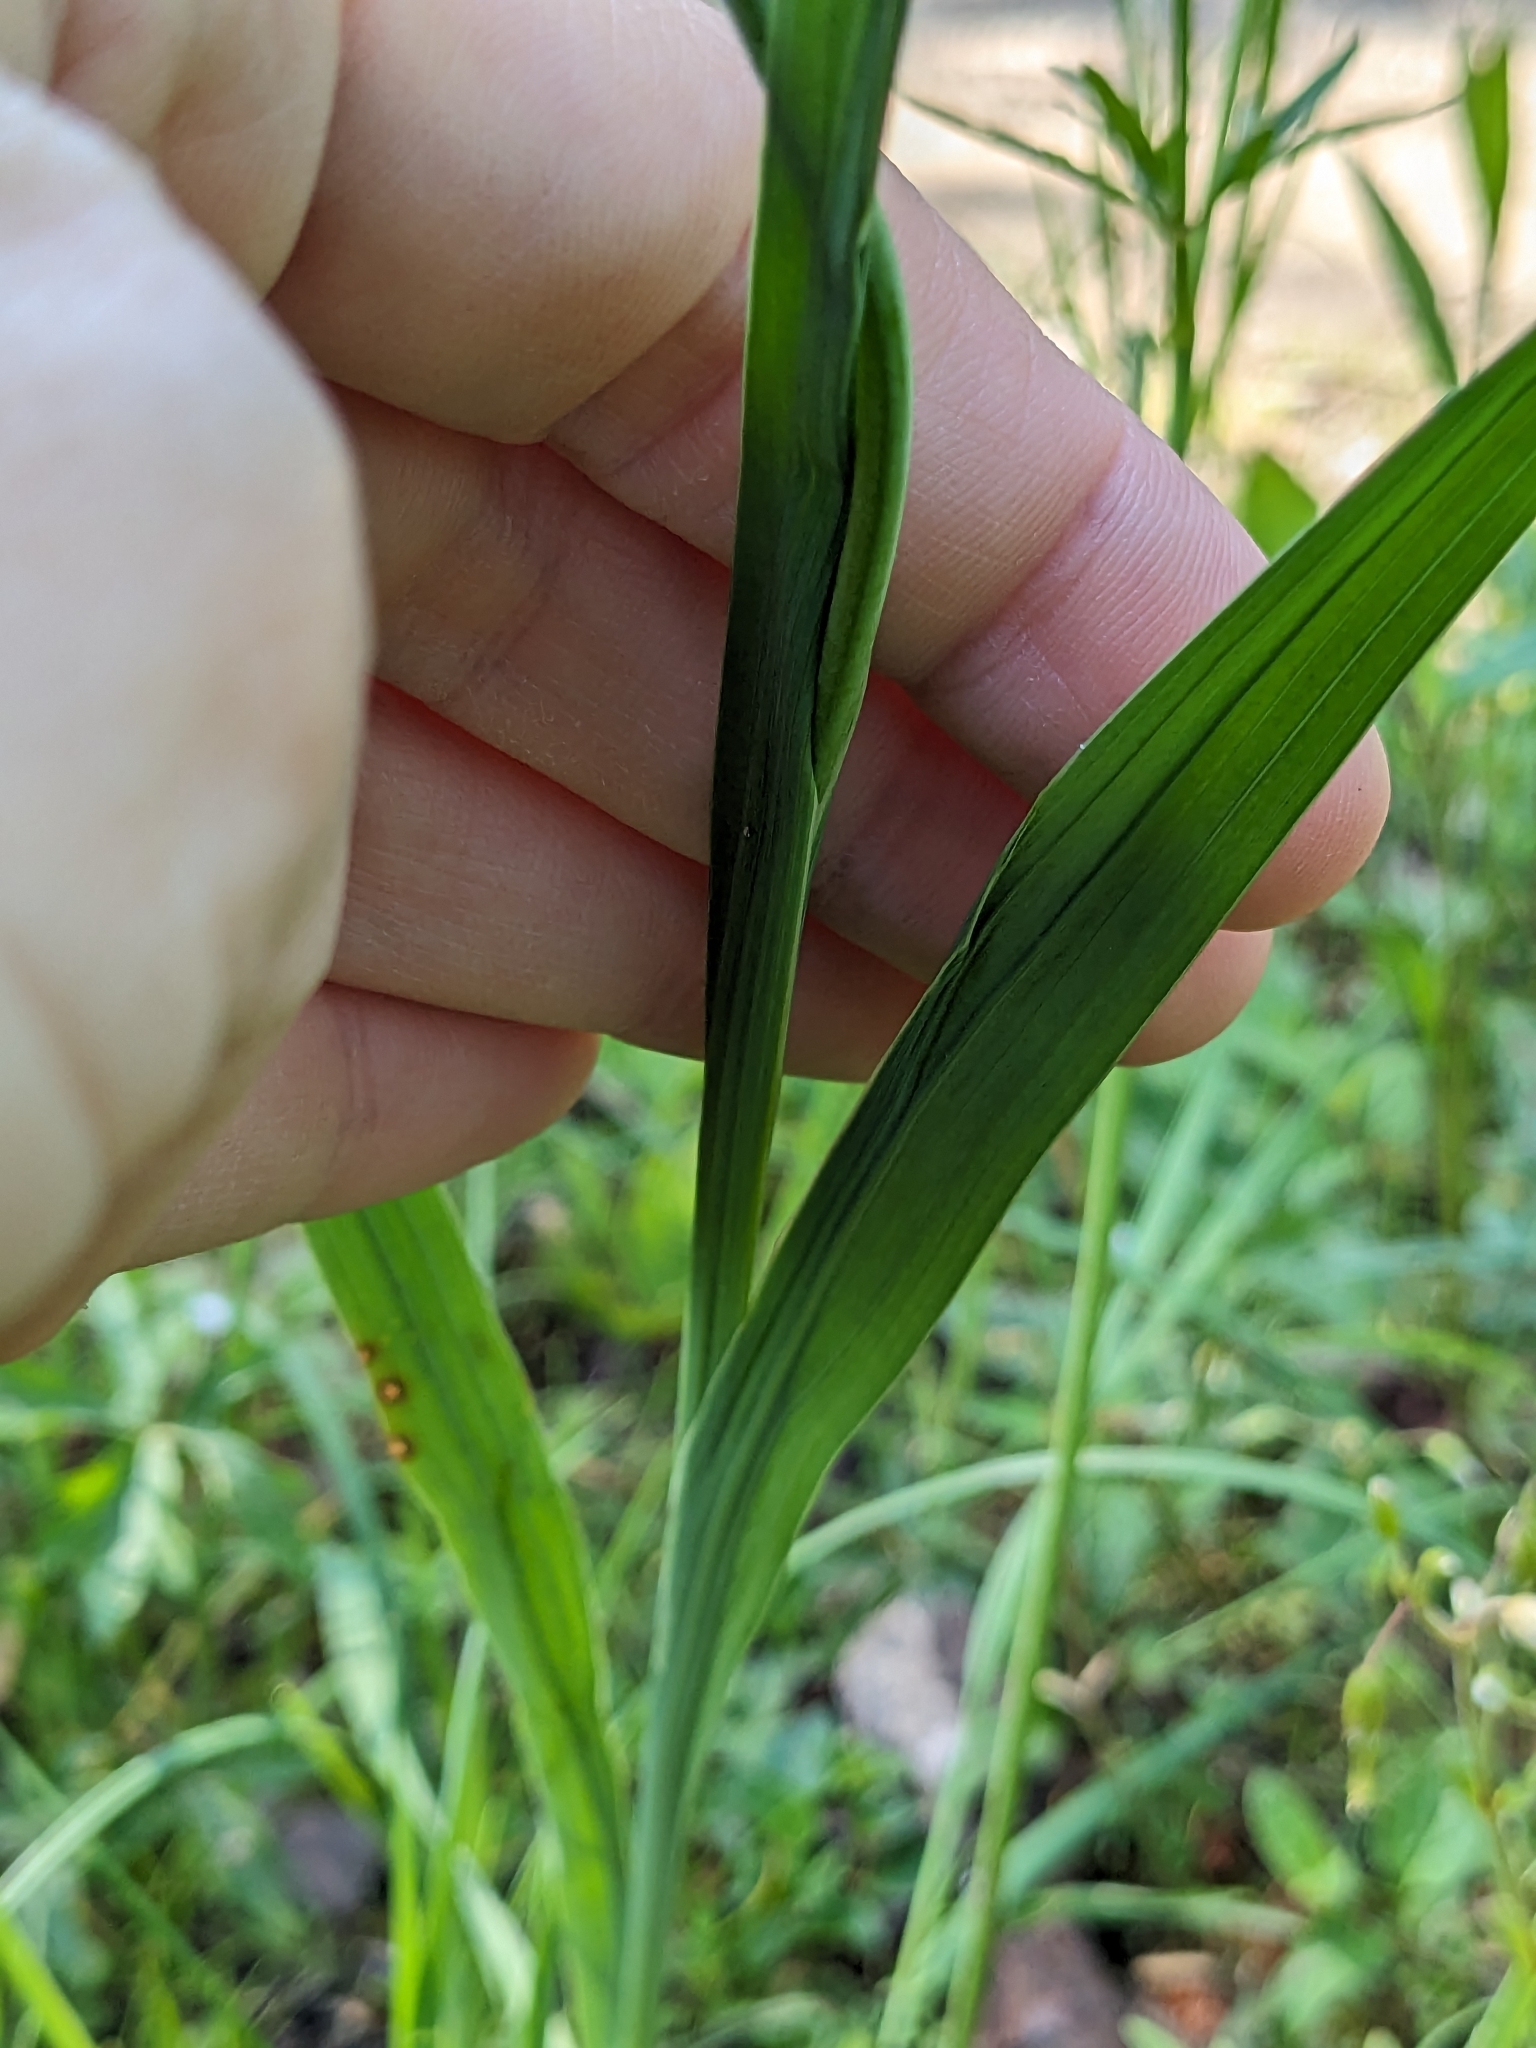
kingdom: Plantae
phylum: Tracheophyta
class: Liliopsida
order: Asparagales
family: Iridaceae
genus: Gladiolus
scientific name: Gladiolus illyricus
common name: Wild gladiolus
